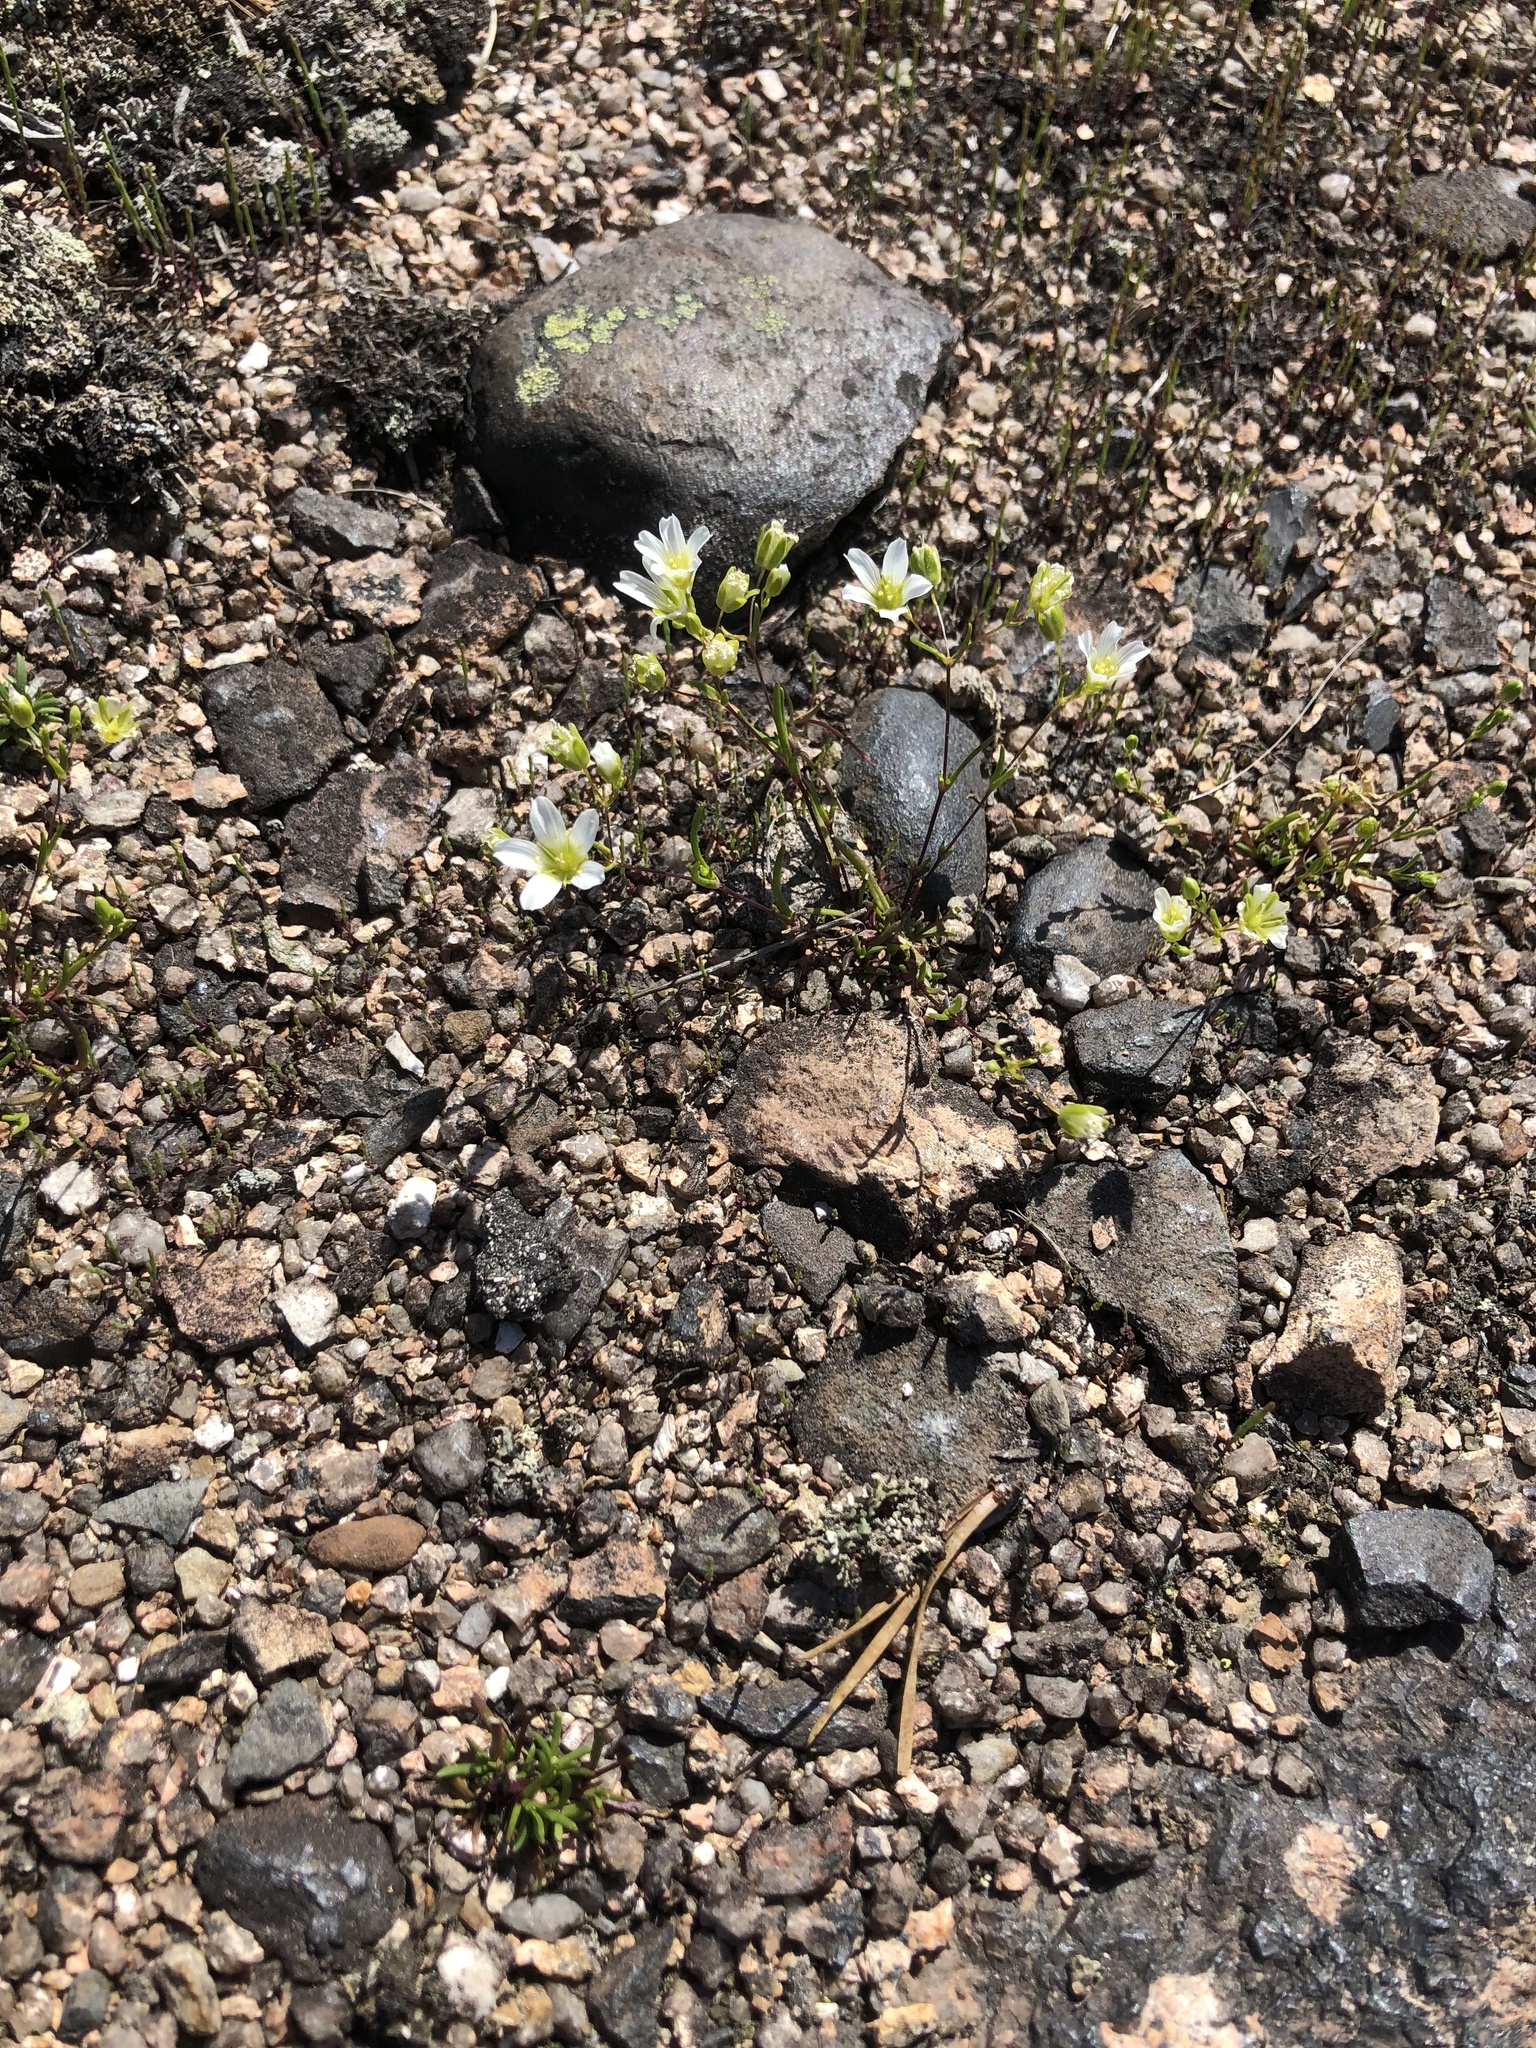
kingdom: Plantae
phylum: Tracheophyta
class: Magnoliopsida
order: Caryophyllales
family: Caryophyllaceae
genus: Geocarpon
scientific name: Geocarpon glabrum
